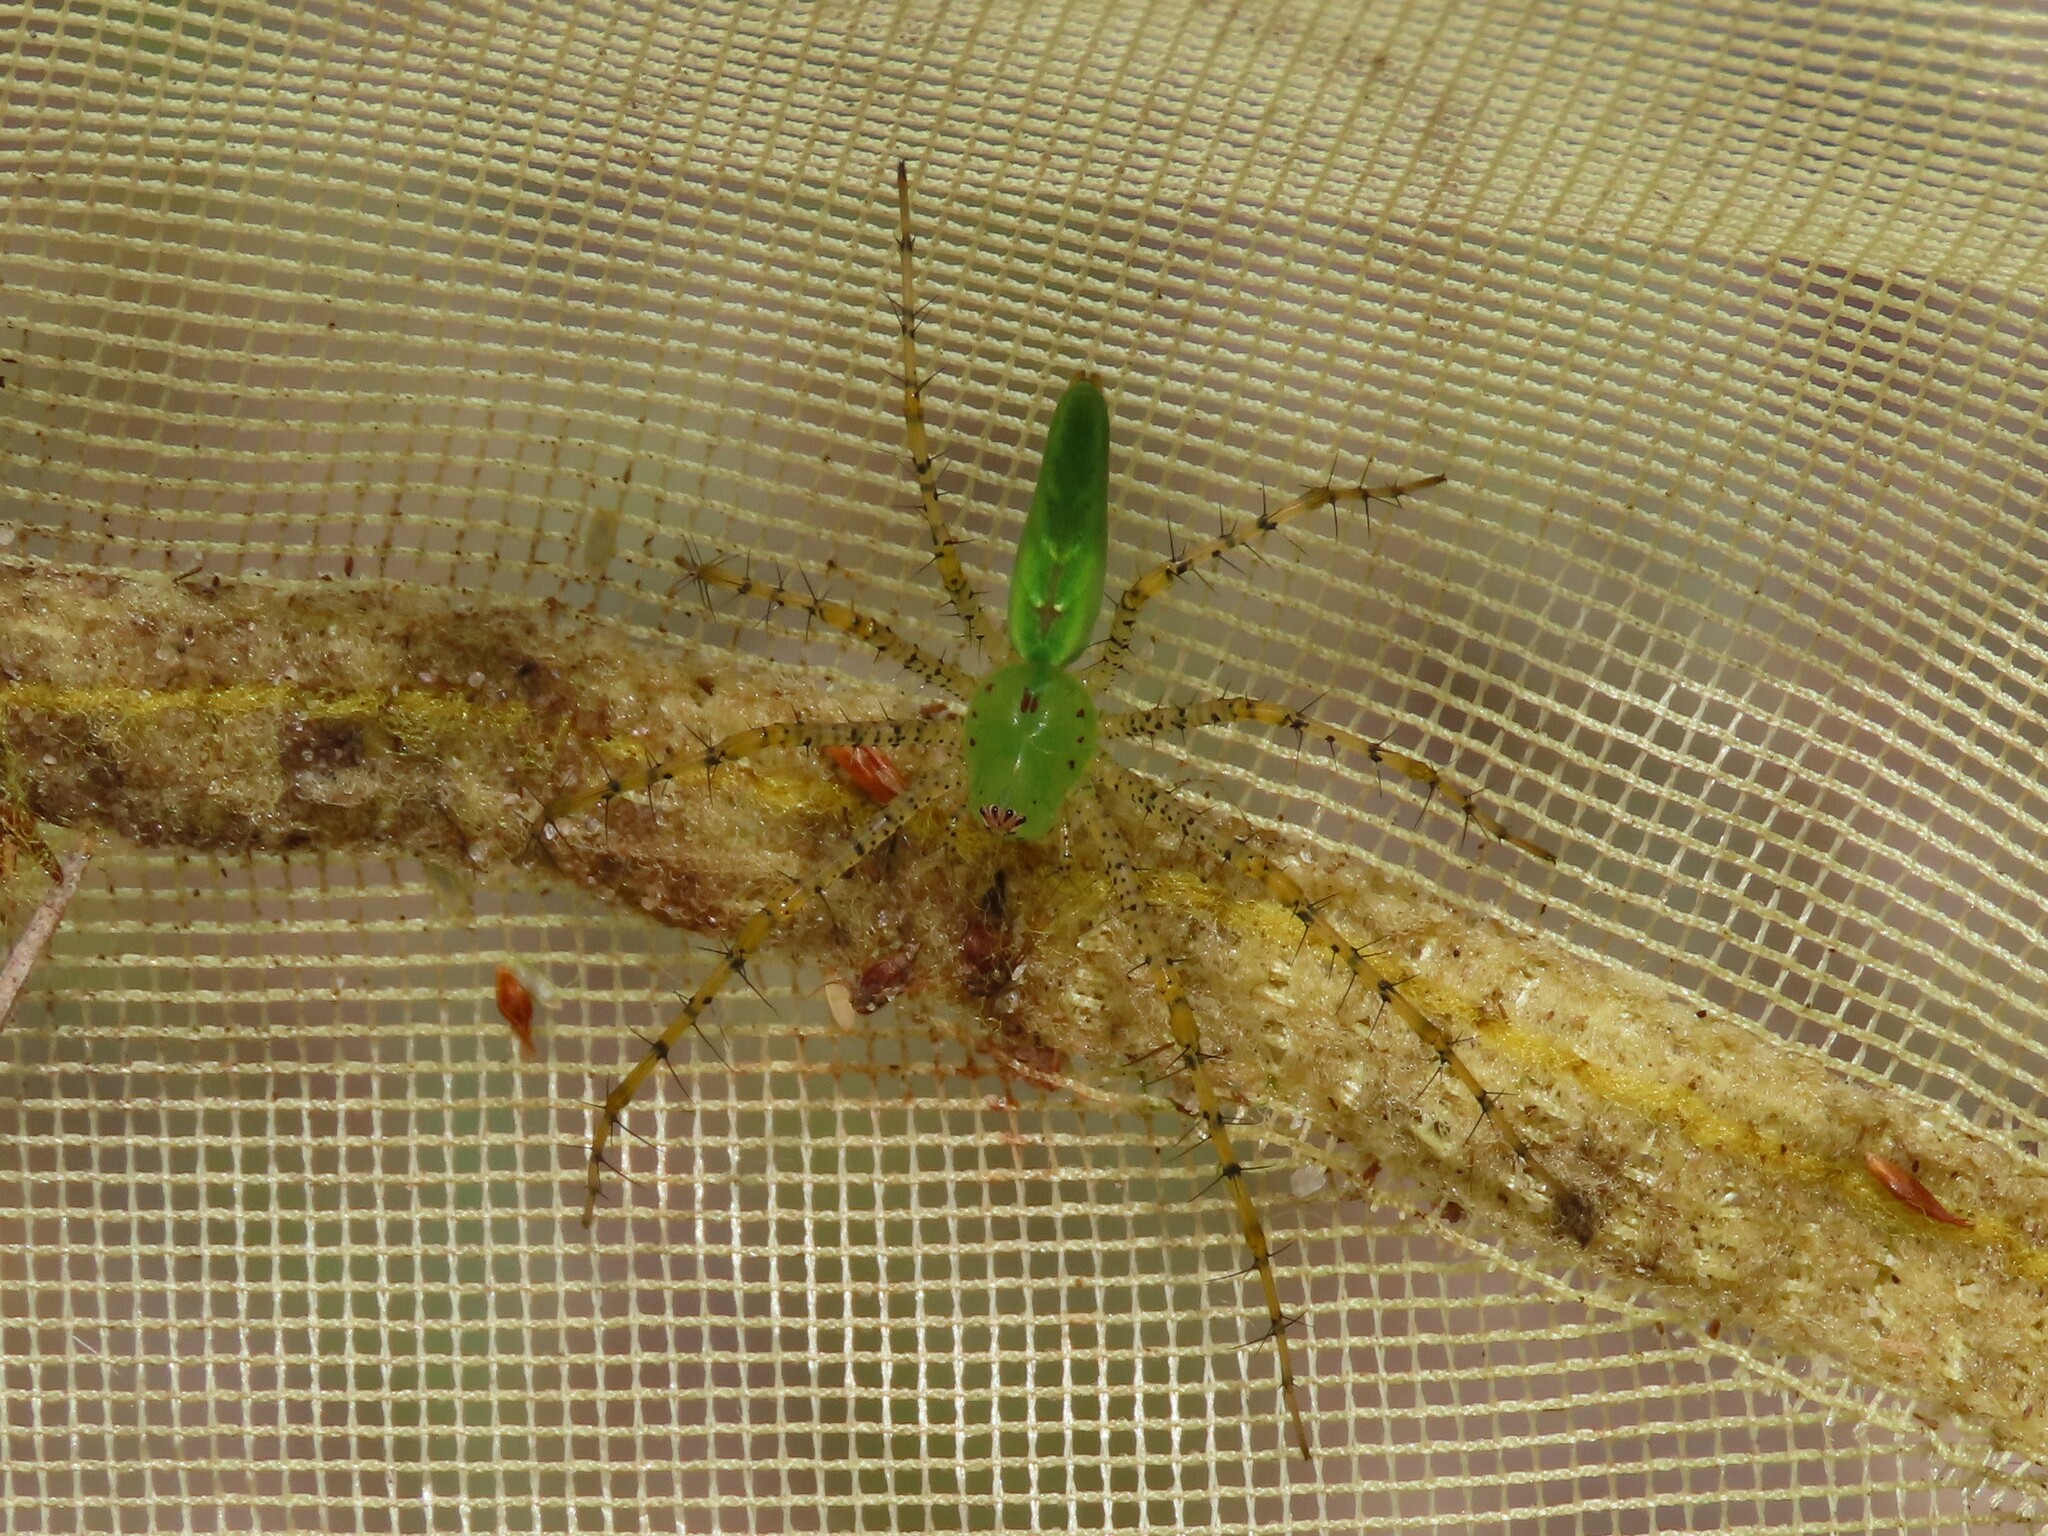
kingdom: Animalia
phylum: Arthropoda
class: Arachnida
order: Araneae
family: Oxyopidae
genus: Peucetia
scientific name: Peucetia viridans
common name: Lynx spiders
